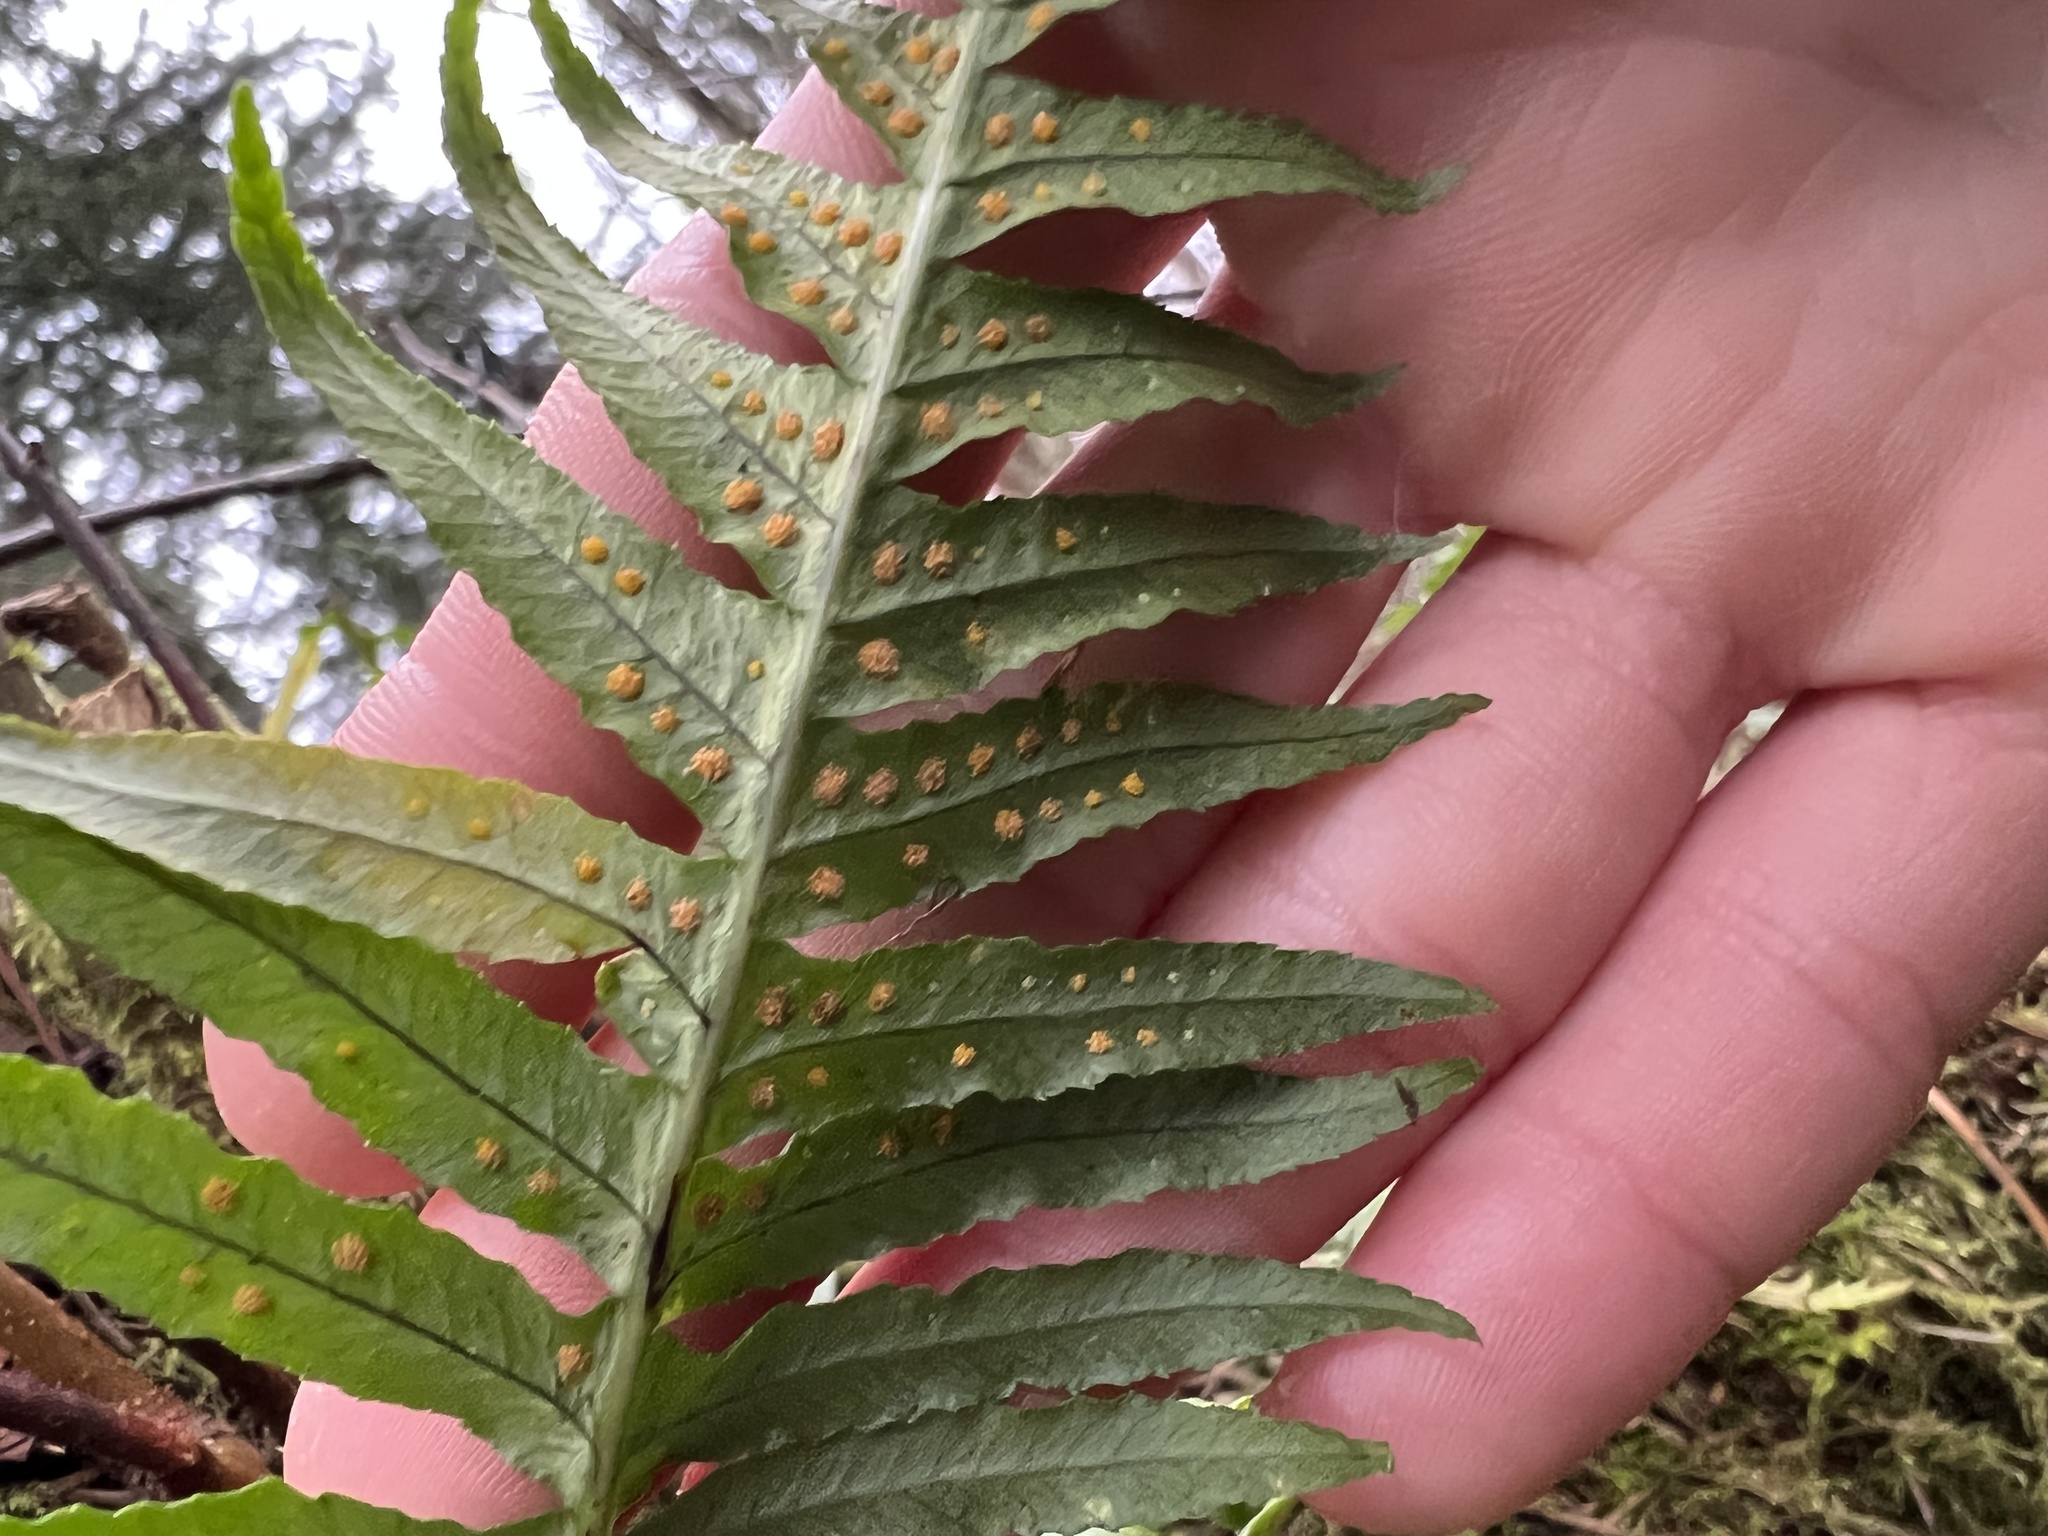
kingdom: Plantae
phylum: Tracheophyta
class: Polypodiopsida
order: Polypodiales
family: Polypodiaceae
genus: Polypodium
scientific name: Polypodium glycyrrhiza
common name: Licorice fern
